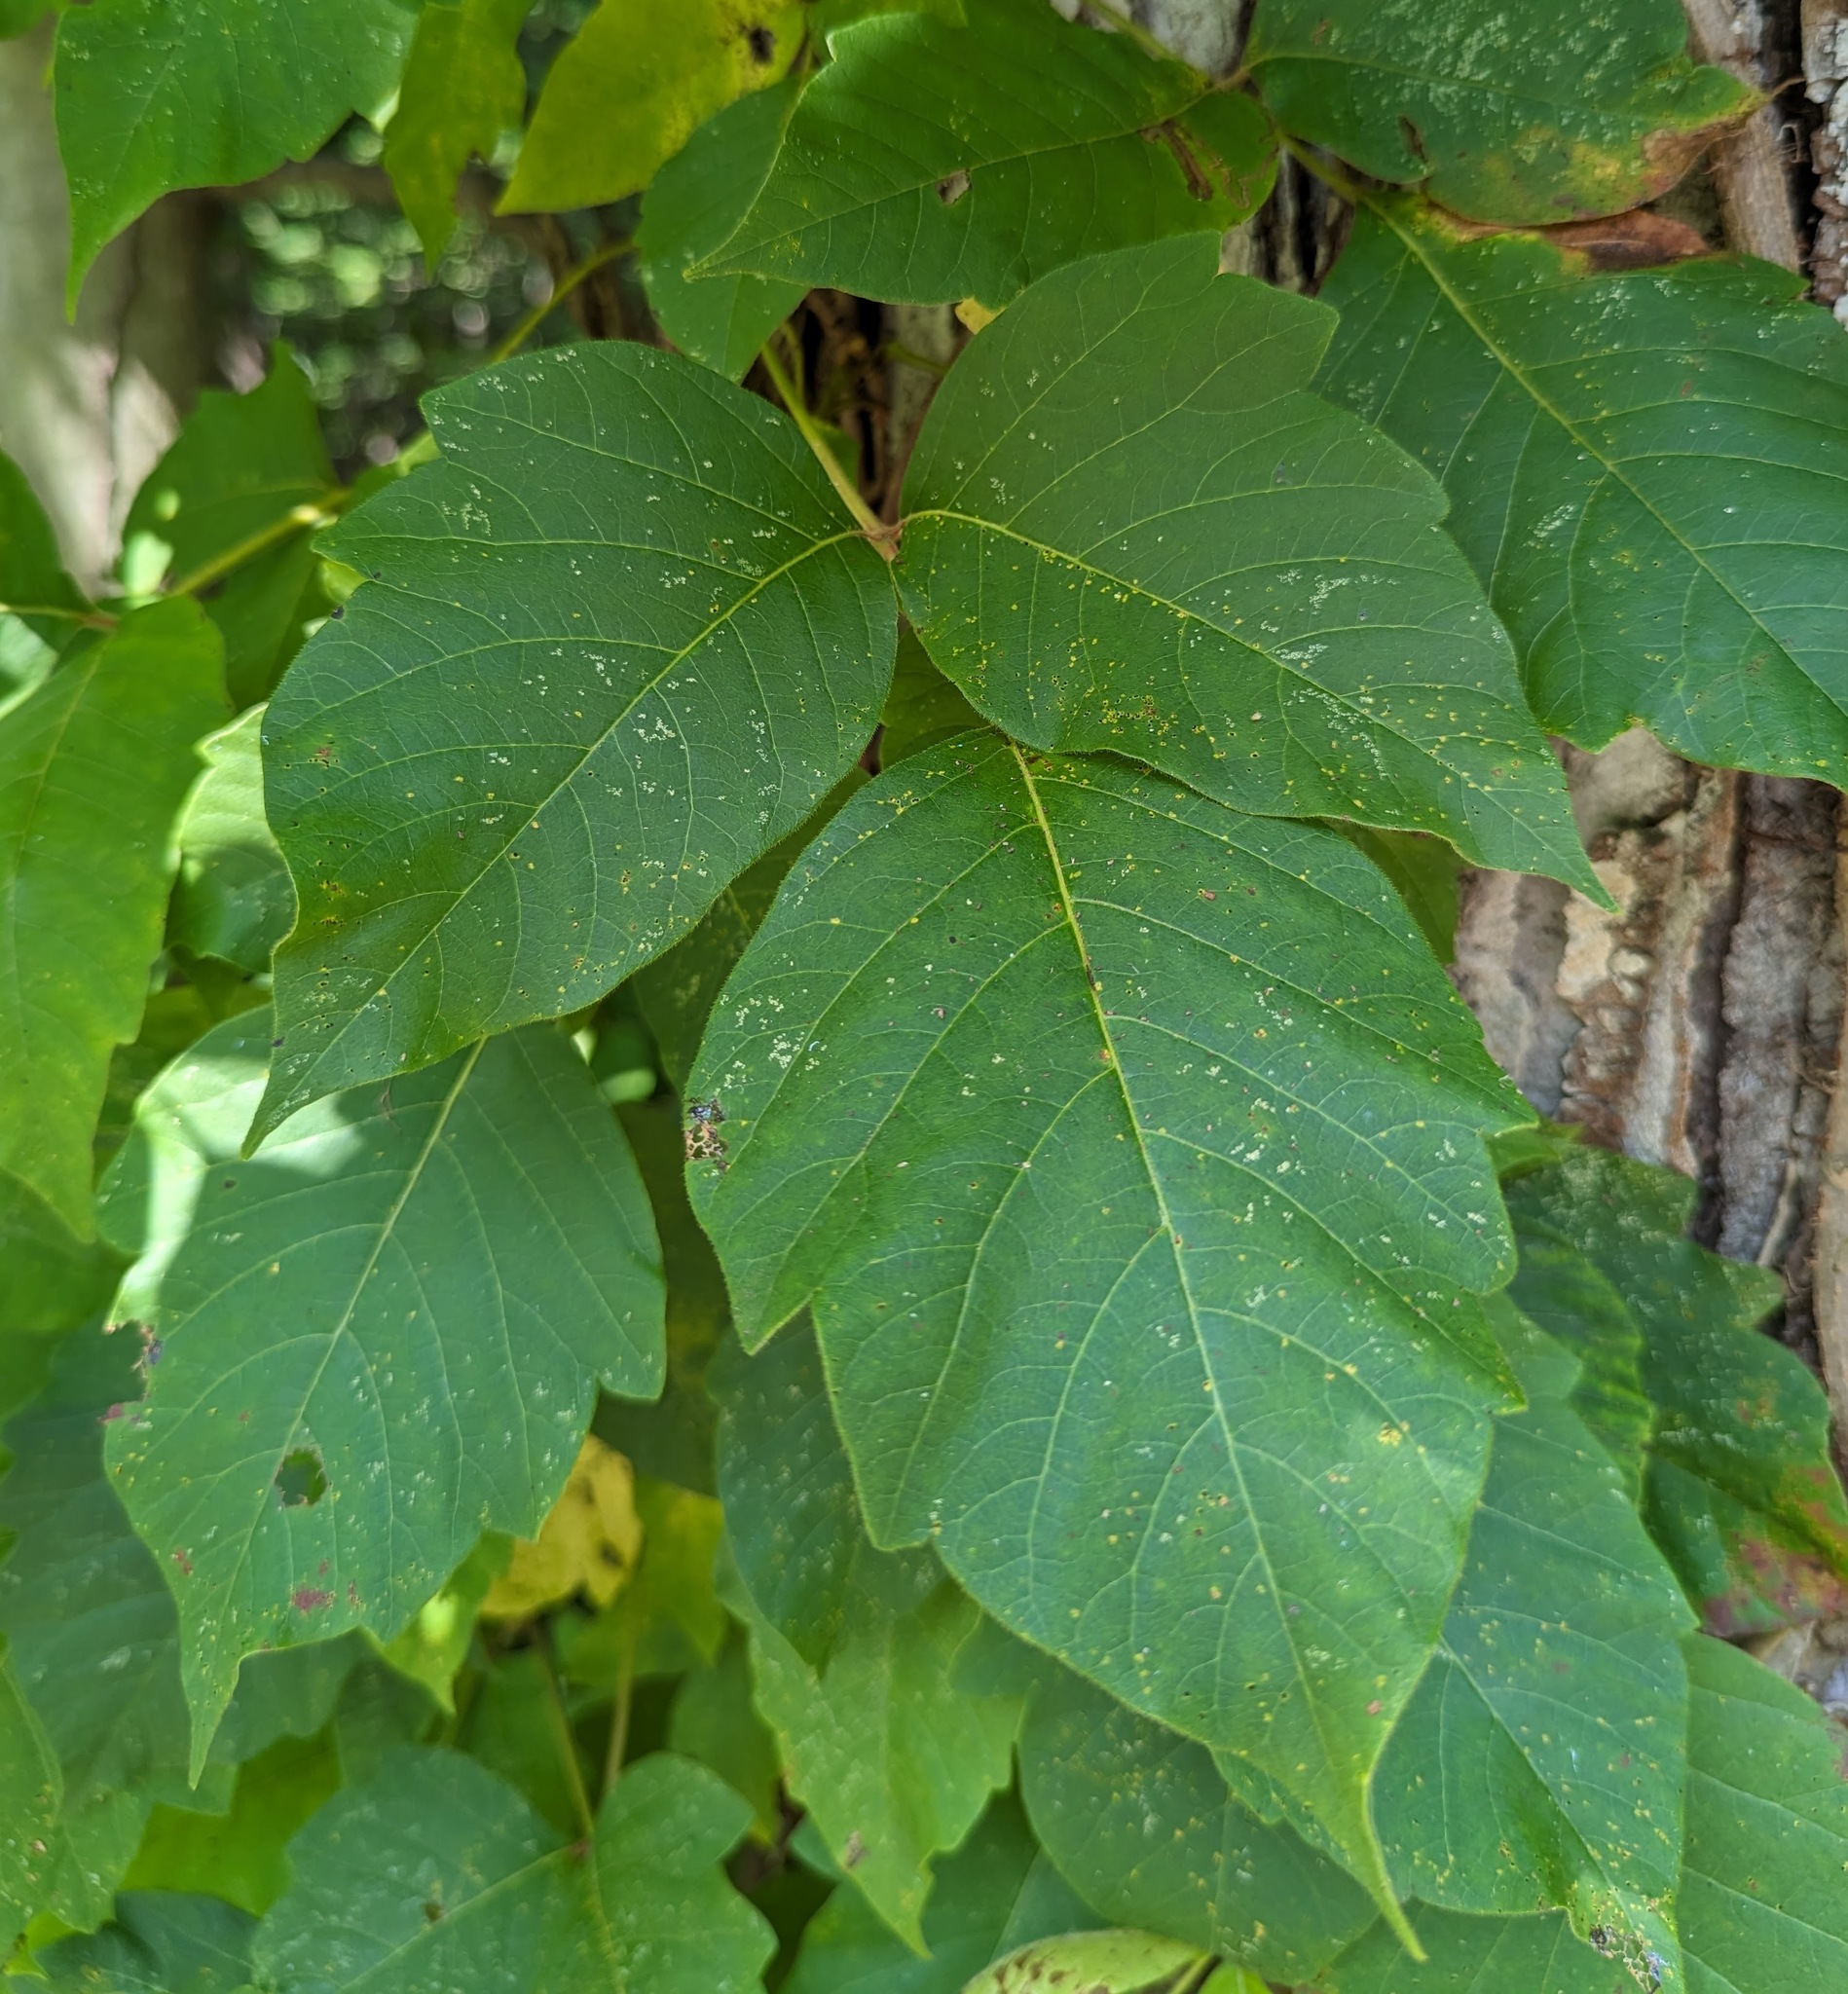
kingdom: Plantae
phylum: Tracheophyta
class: Magnoliopsida
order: Sapindales
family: Anacardiaceae
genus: Toxicodendron
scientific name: Toxicodendron radicans
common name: Poison ivy
